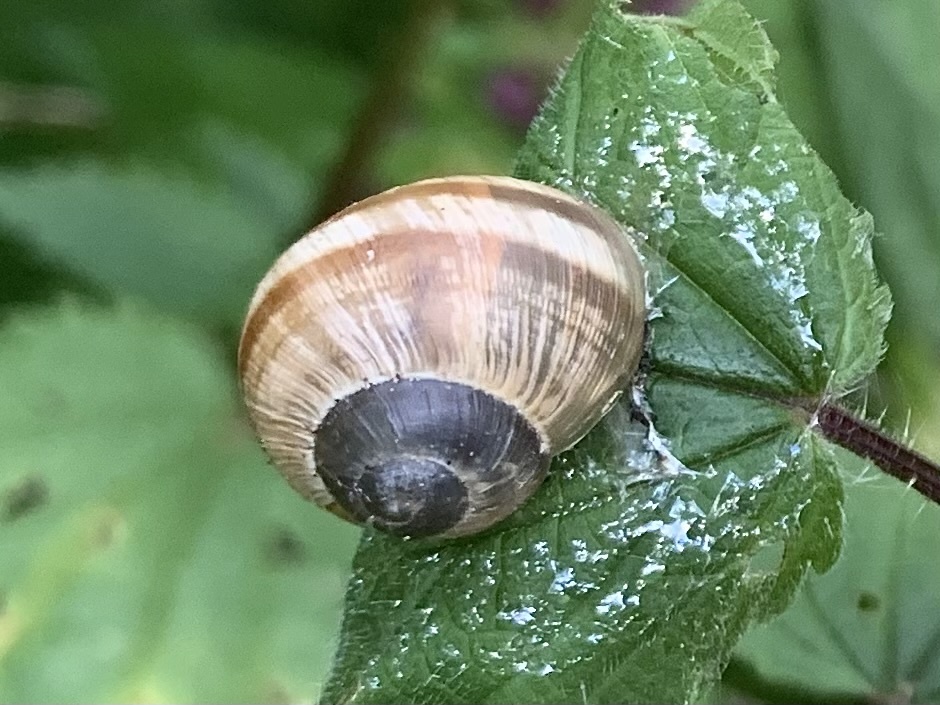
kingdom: Animalia
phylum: Mollusca
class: Gastropoda
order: Stylommatophora
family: Helicidae
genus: Helix
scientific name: Helix pomatia
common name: Roman snail
